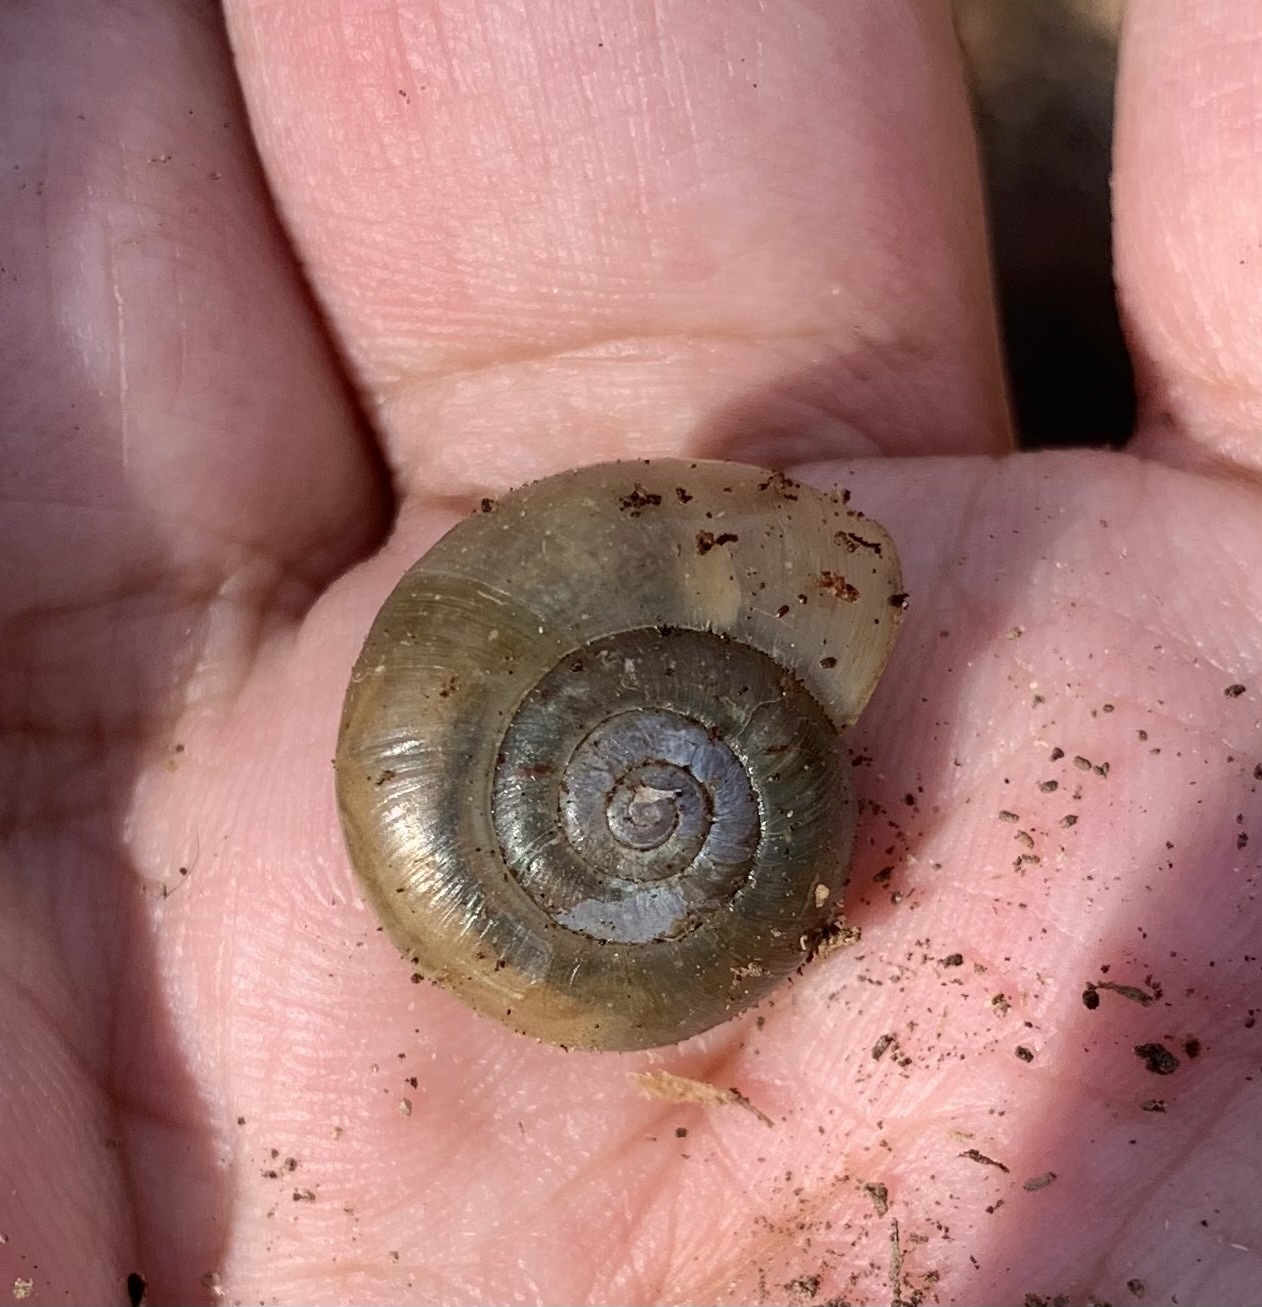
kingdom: Animalia
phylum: Mollusca
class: Gastropoda
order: Stylommatophora
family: Haplotrematidae
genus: Haplotrema
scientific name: Haplotrema concavum
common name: Gray-foot lancetooth
